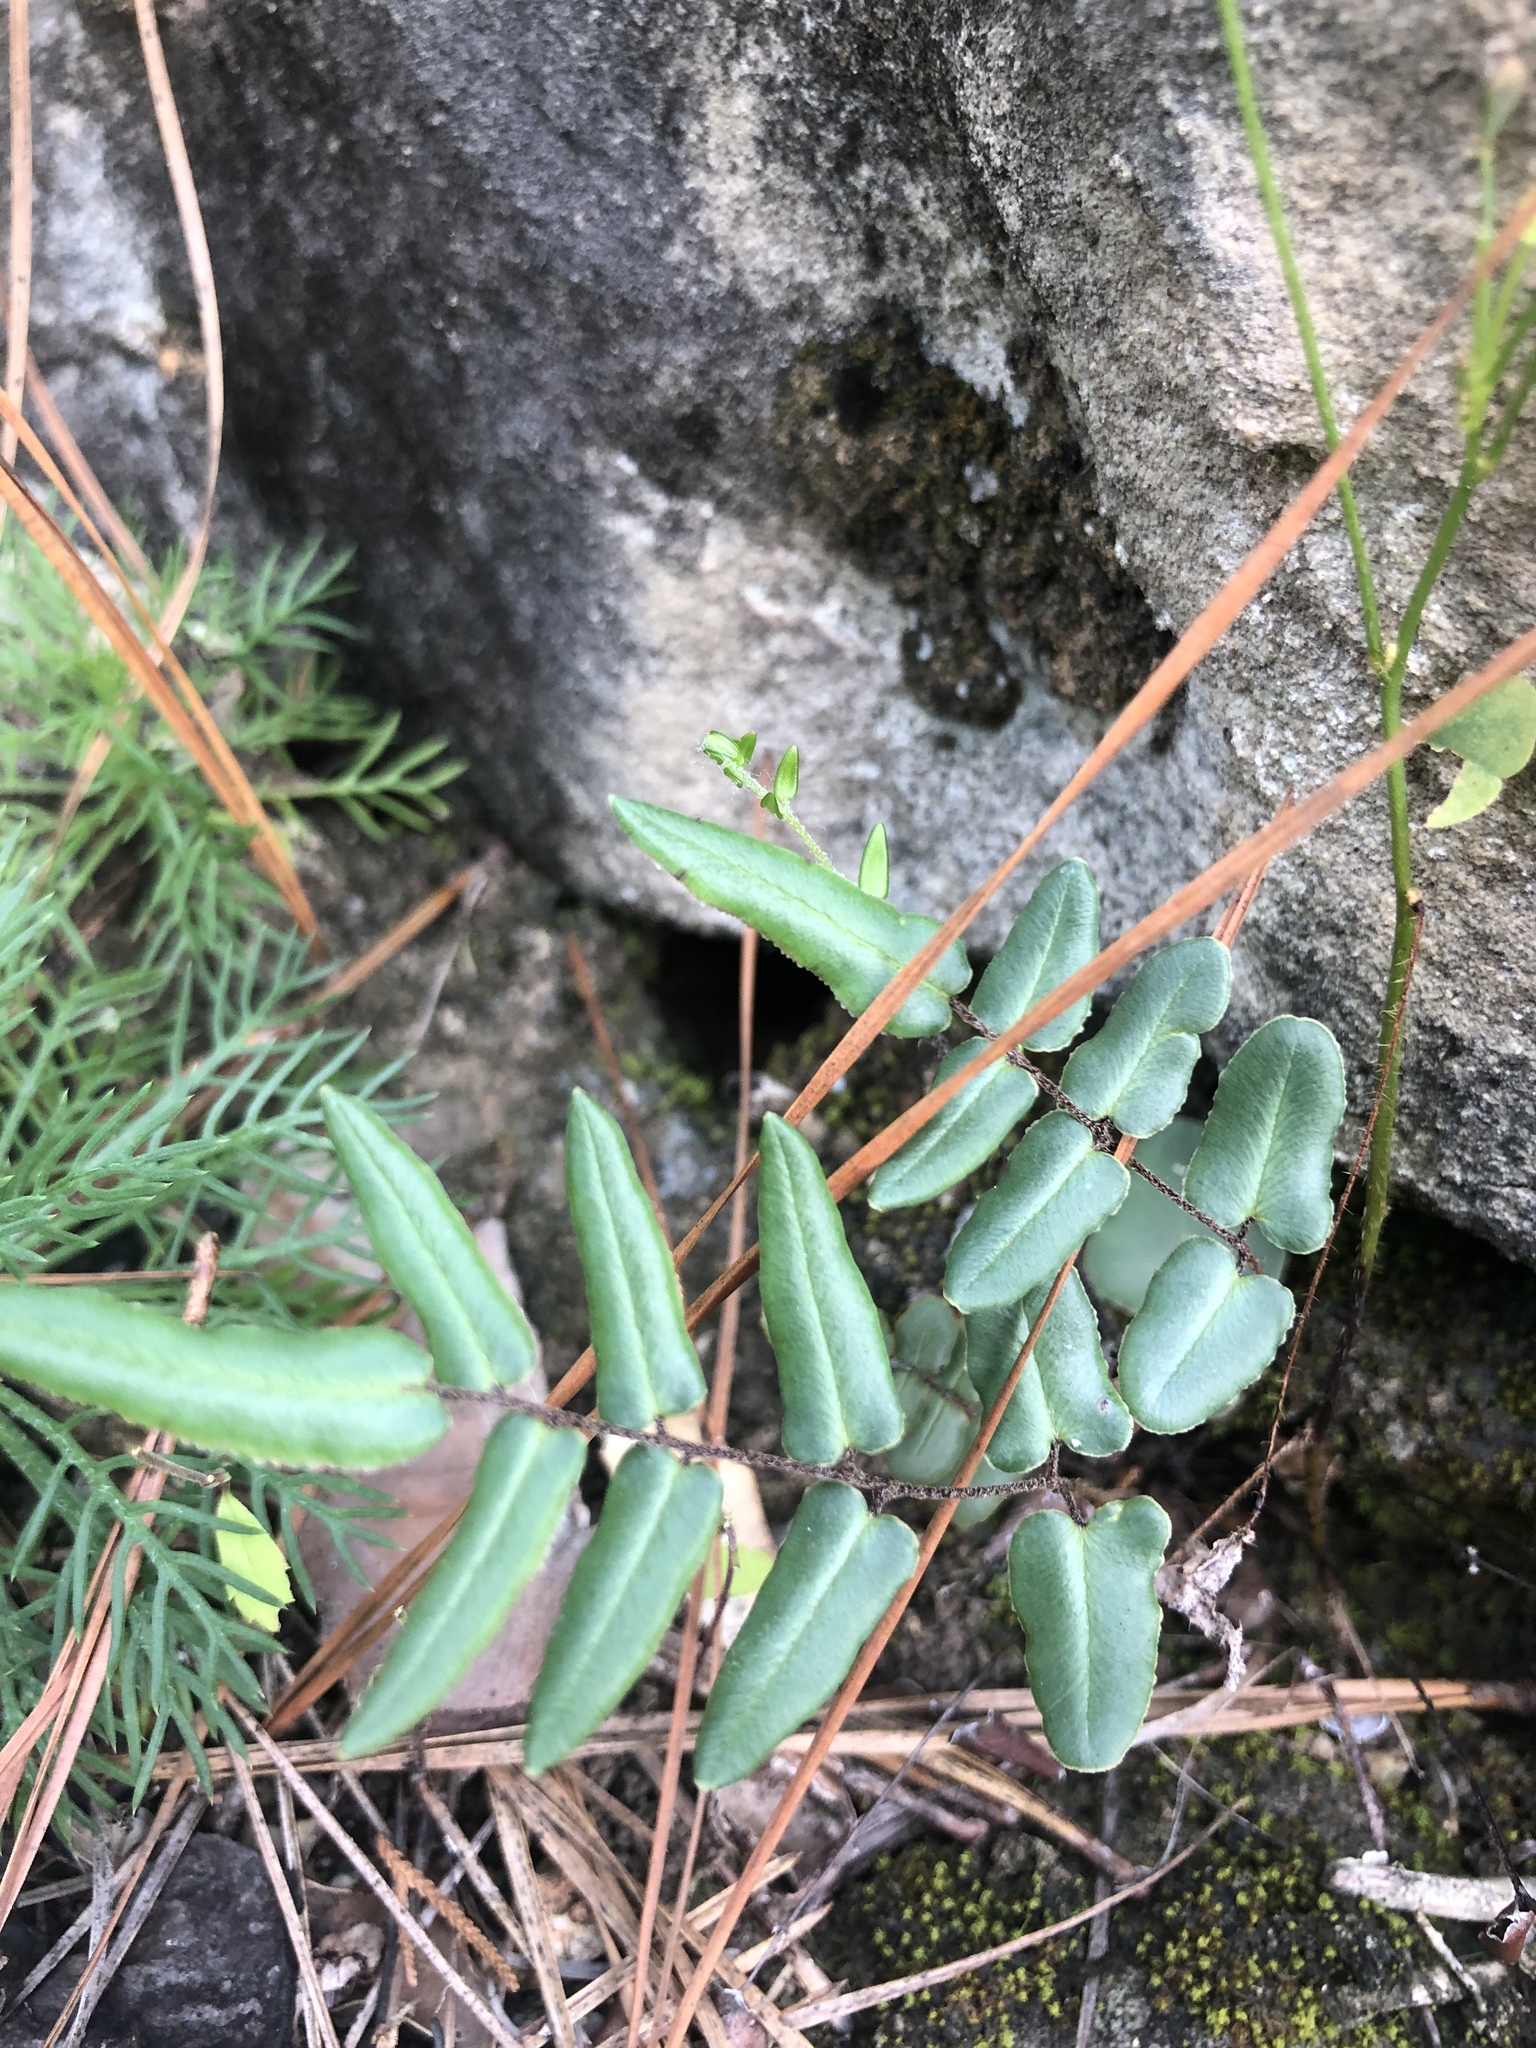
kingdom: Plantae
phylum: Tracheophyta
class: Polypodiopsida
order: Polypodiales
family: Pteridaceae
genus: Pellaea
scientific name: Pellaea atropurpurea
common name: Hairy cliffbrake
